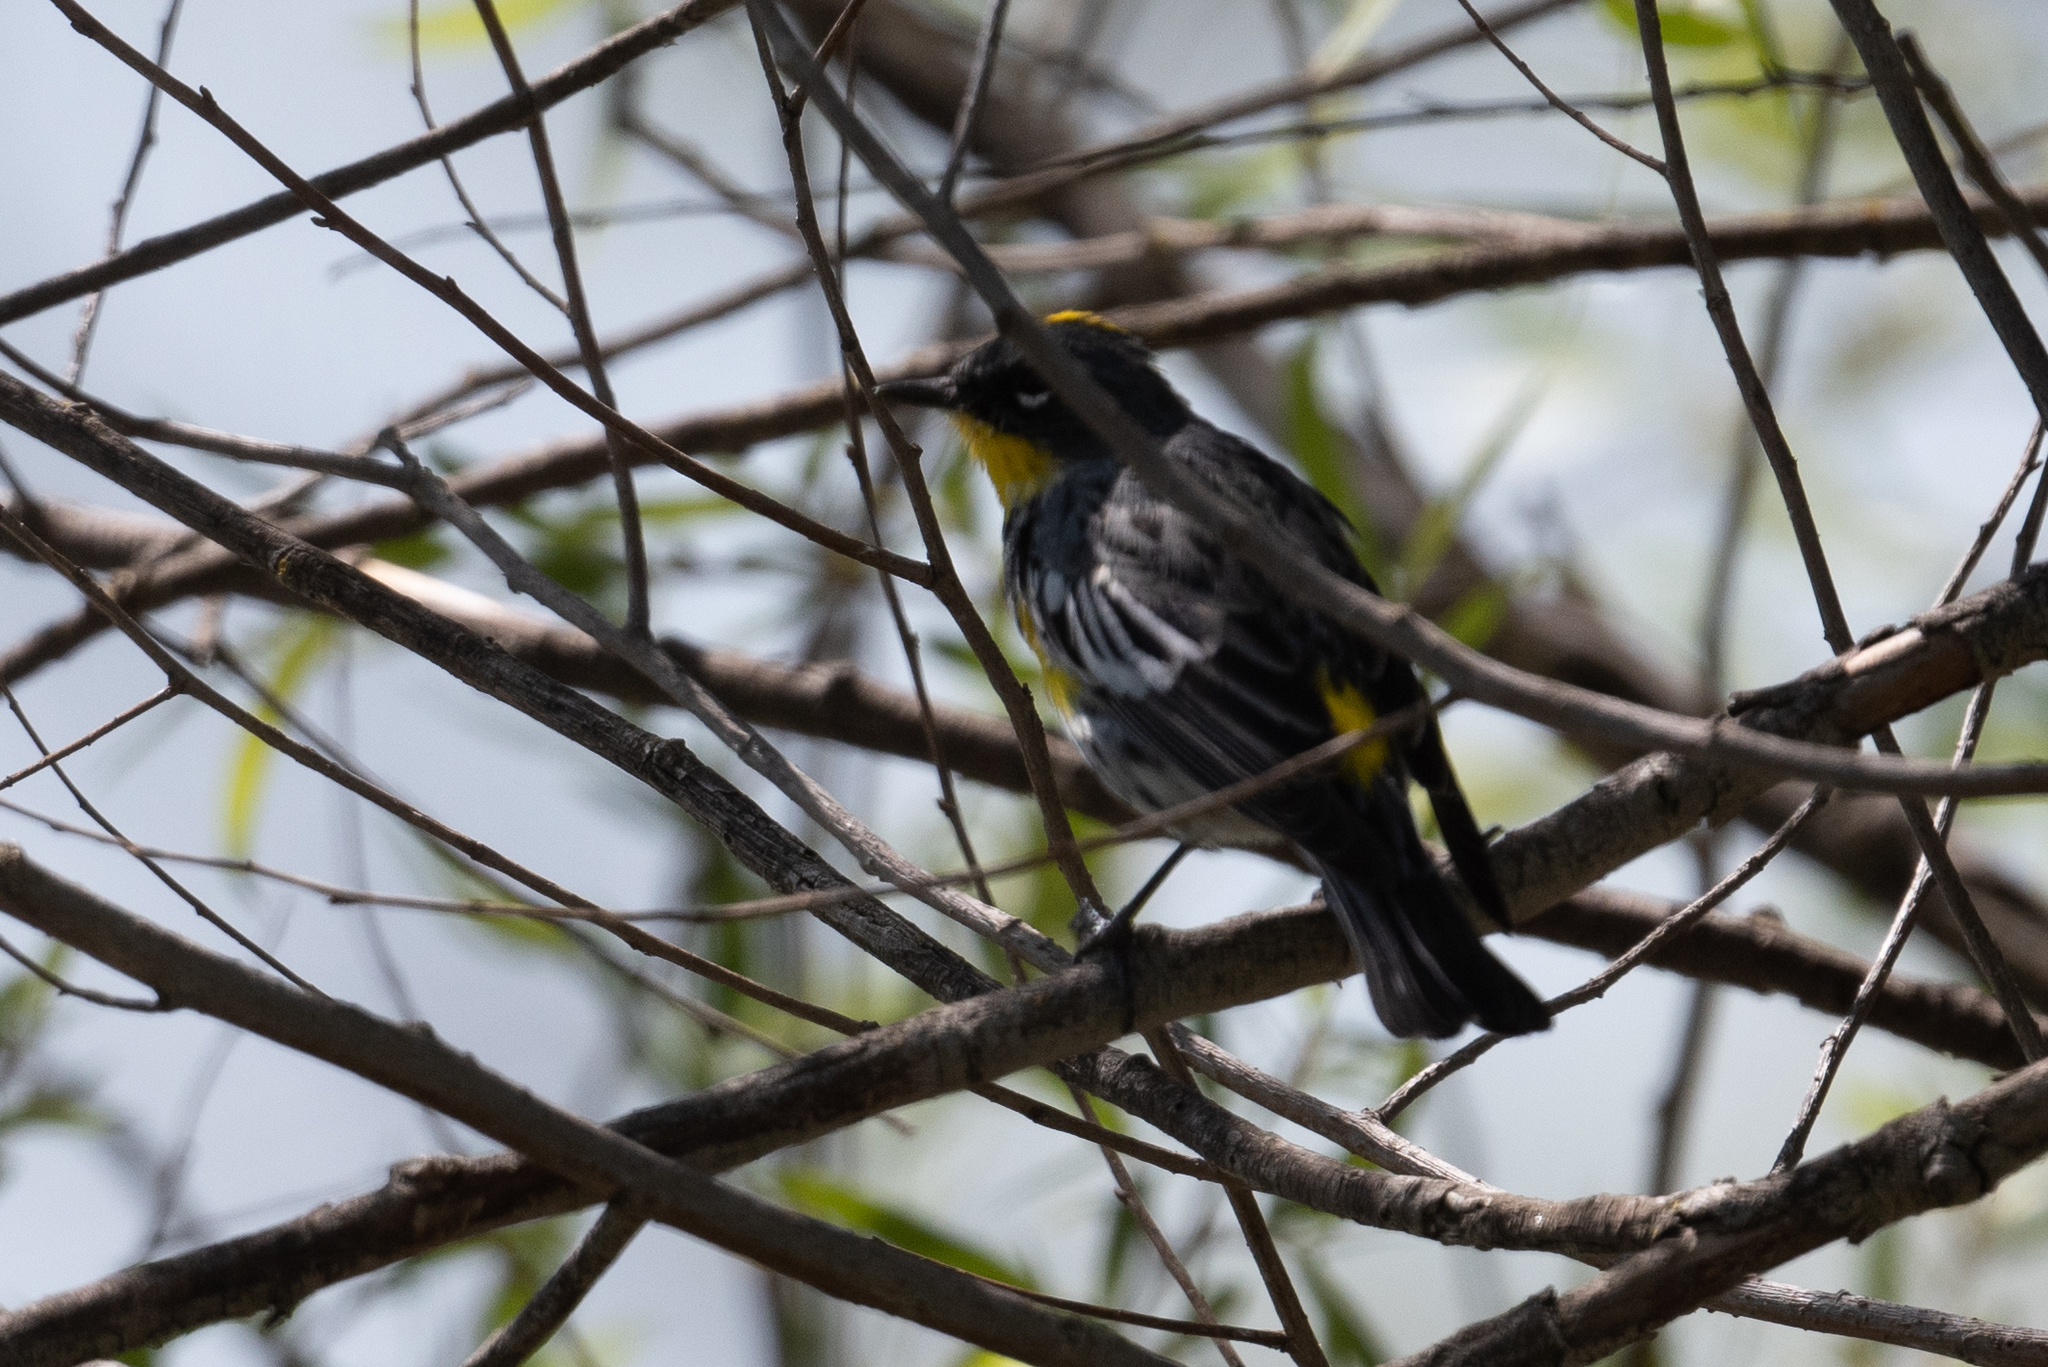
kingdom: Animalia
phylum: Chordata
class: Aves
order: Passeriformes
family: Parulidae
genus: Setophaga
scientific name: Setophaga coronata
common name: Myrtle warbler
